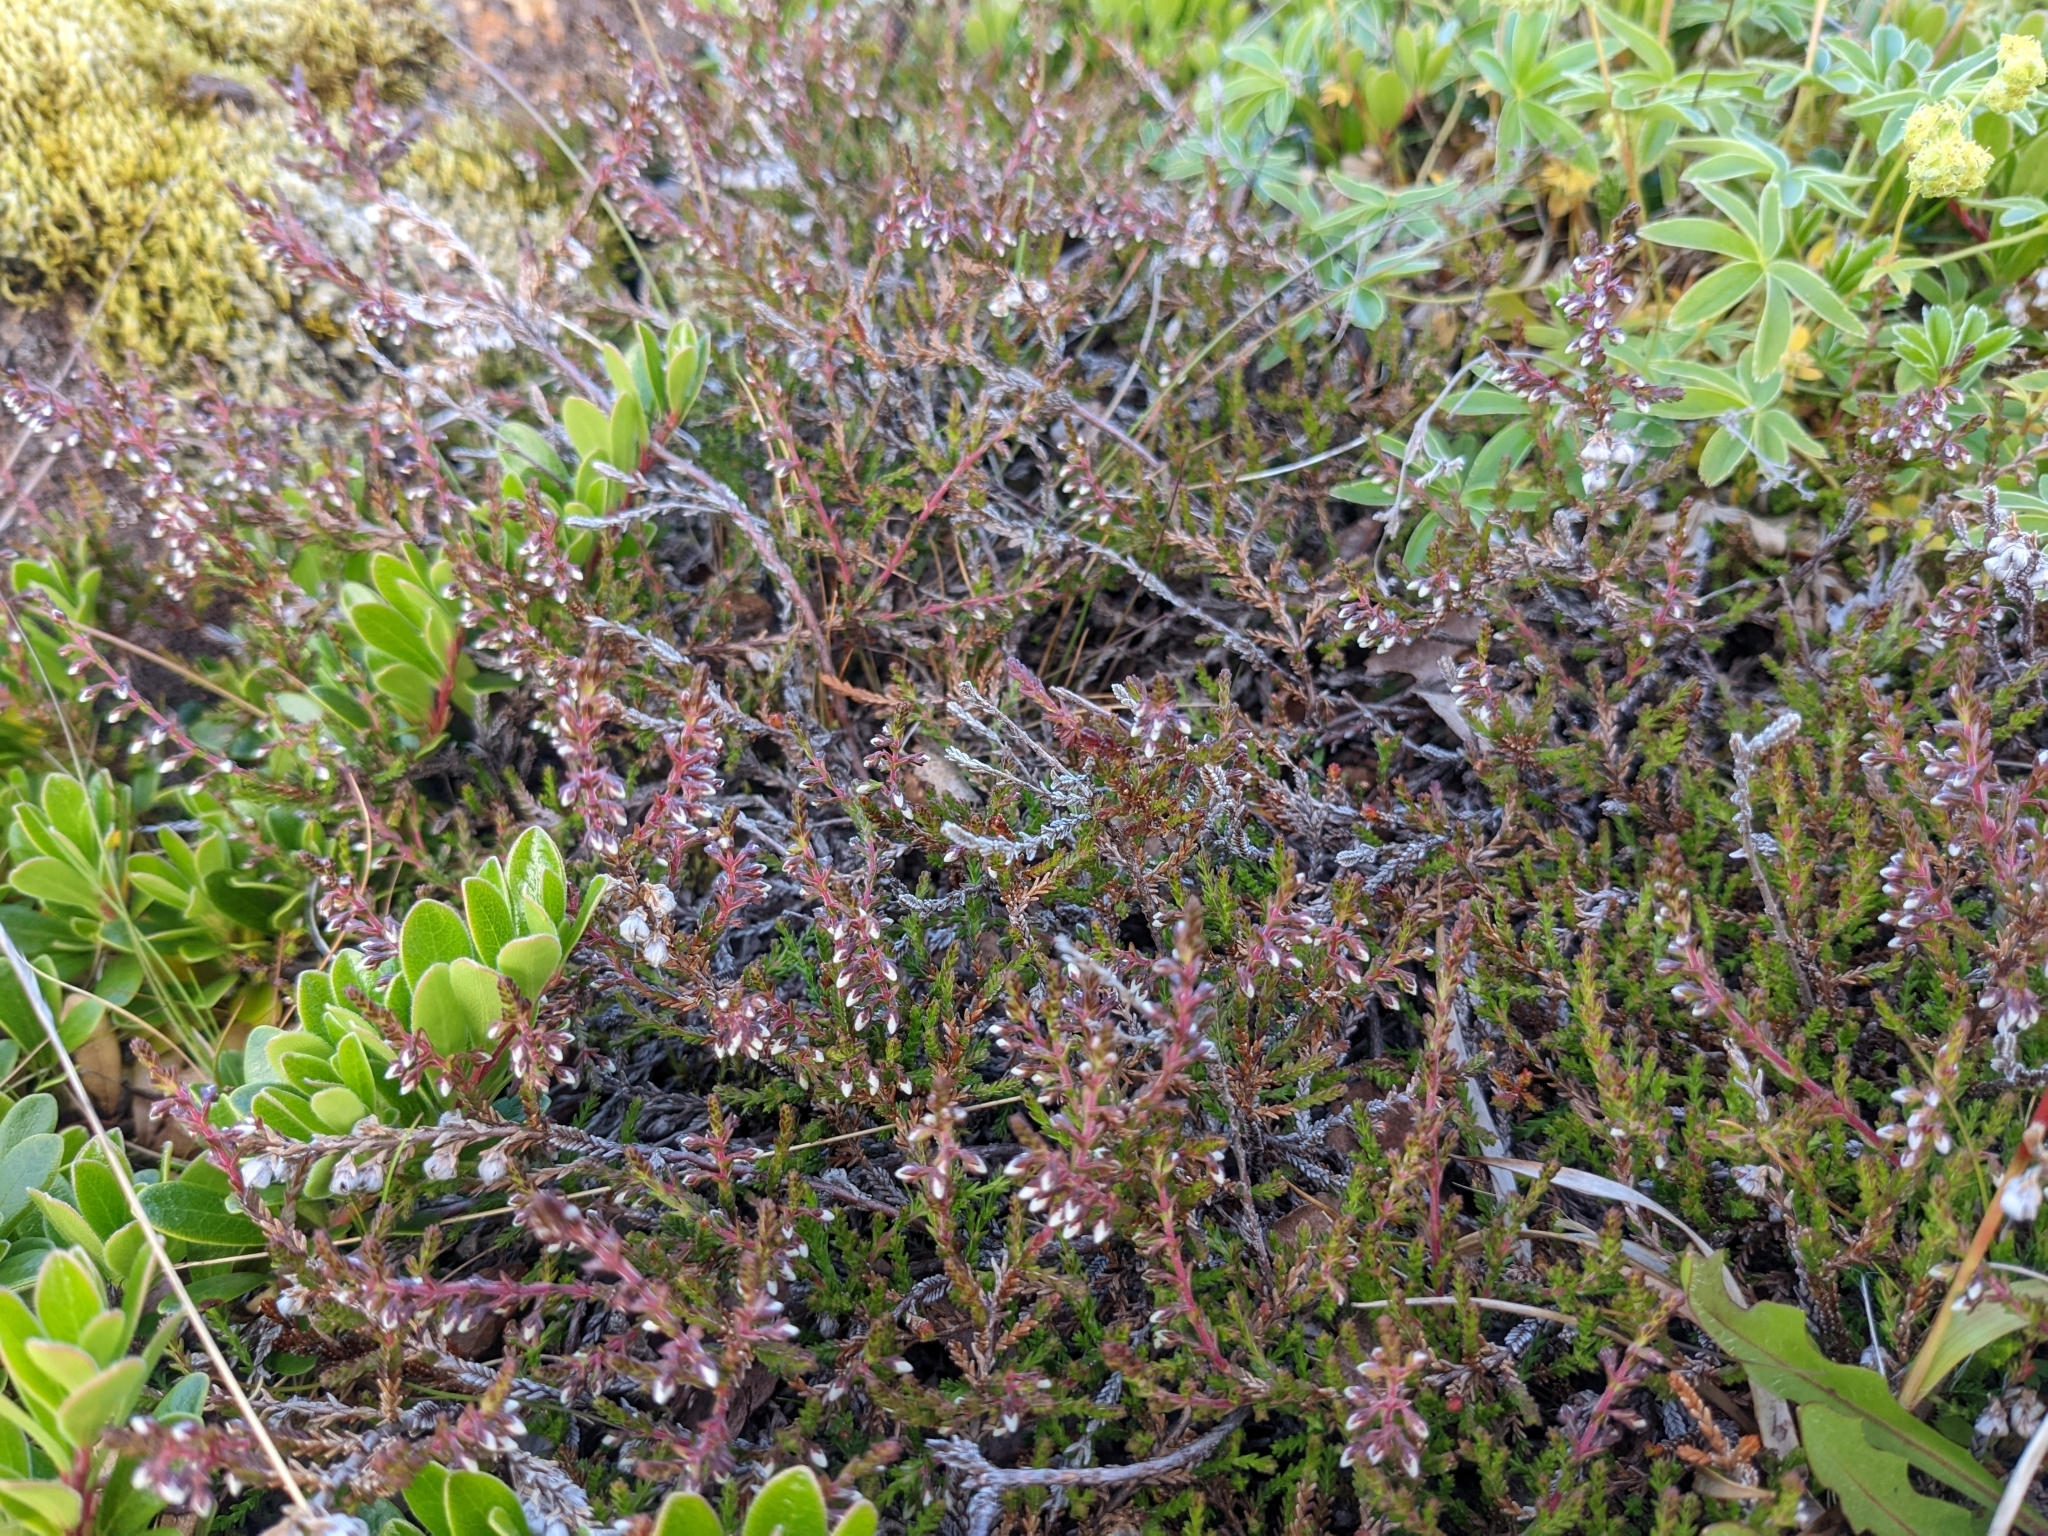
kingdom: Plantae
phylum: Tracheophyta
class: Magnoliopsida
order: Ericales
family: Ericaceae
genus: Calluna
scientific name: Calluna vulgaris
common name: Heather
